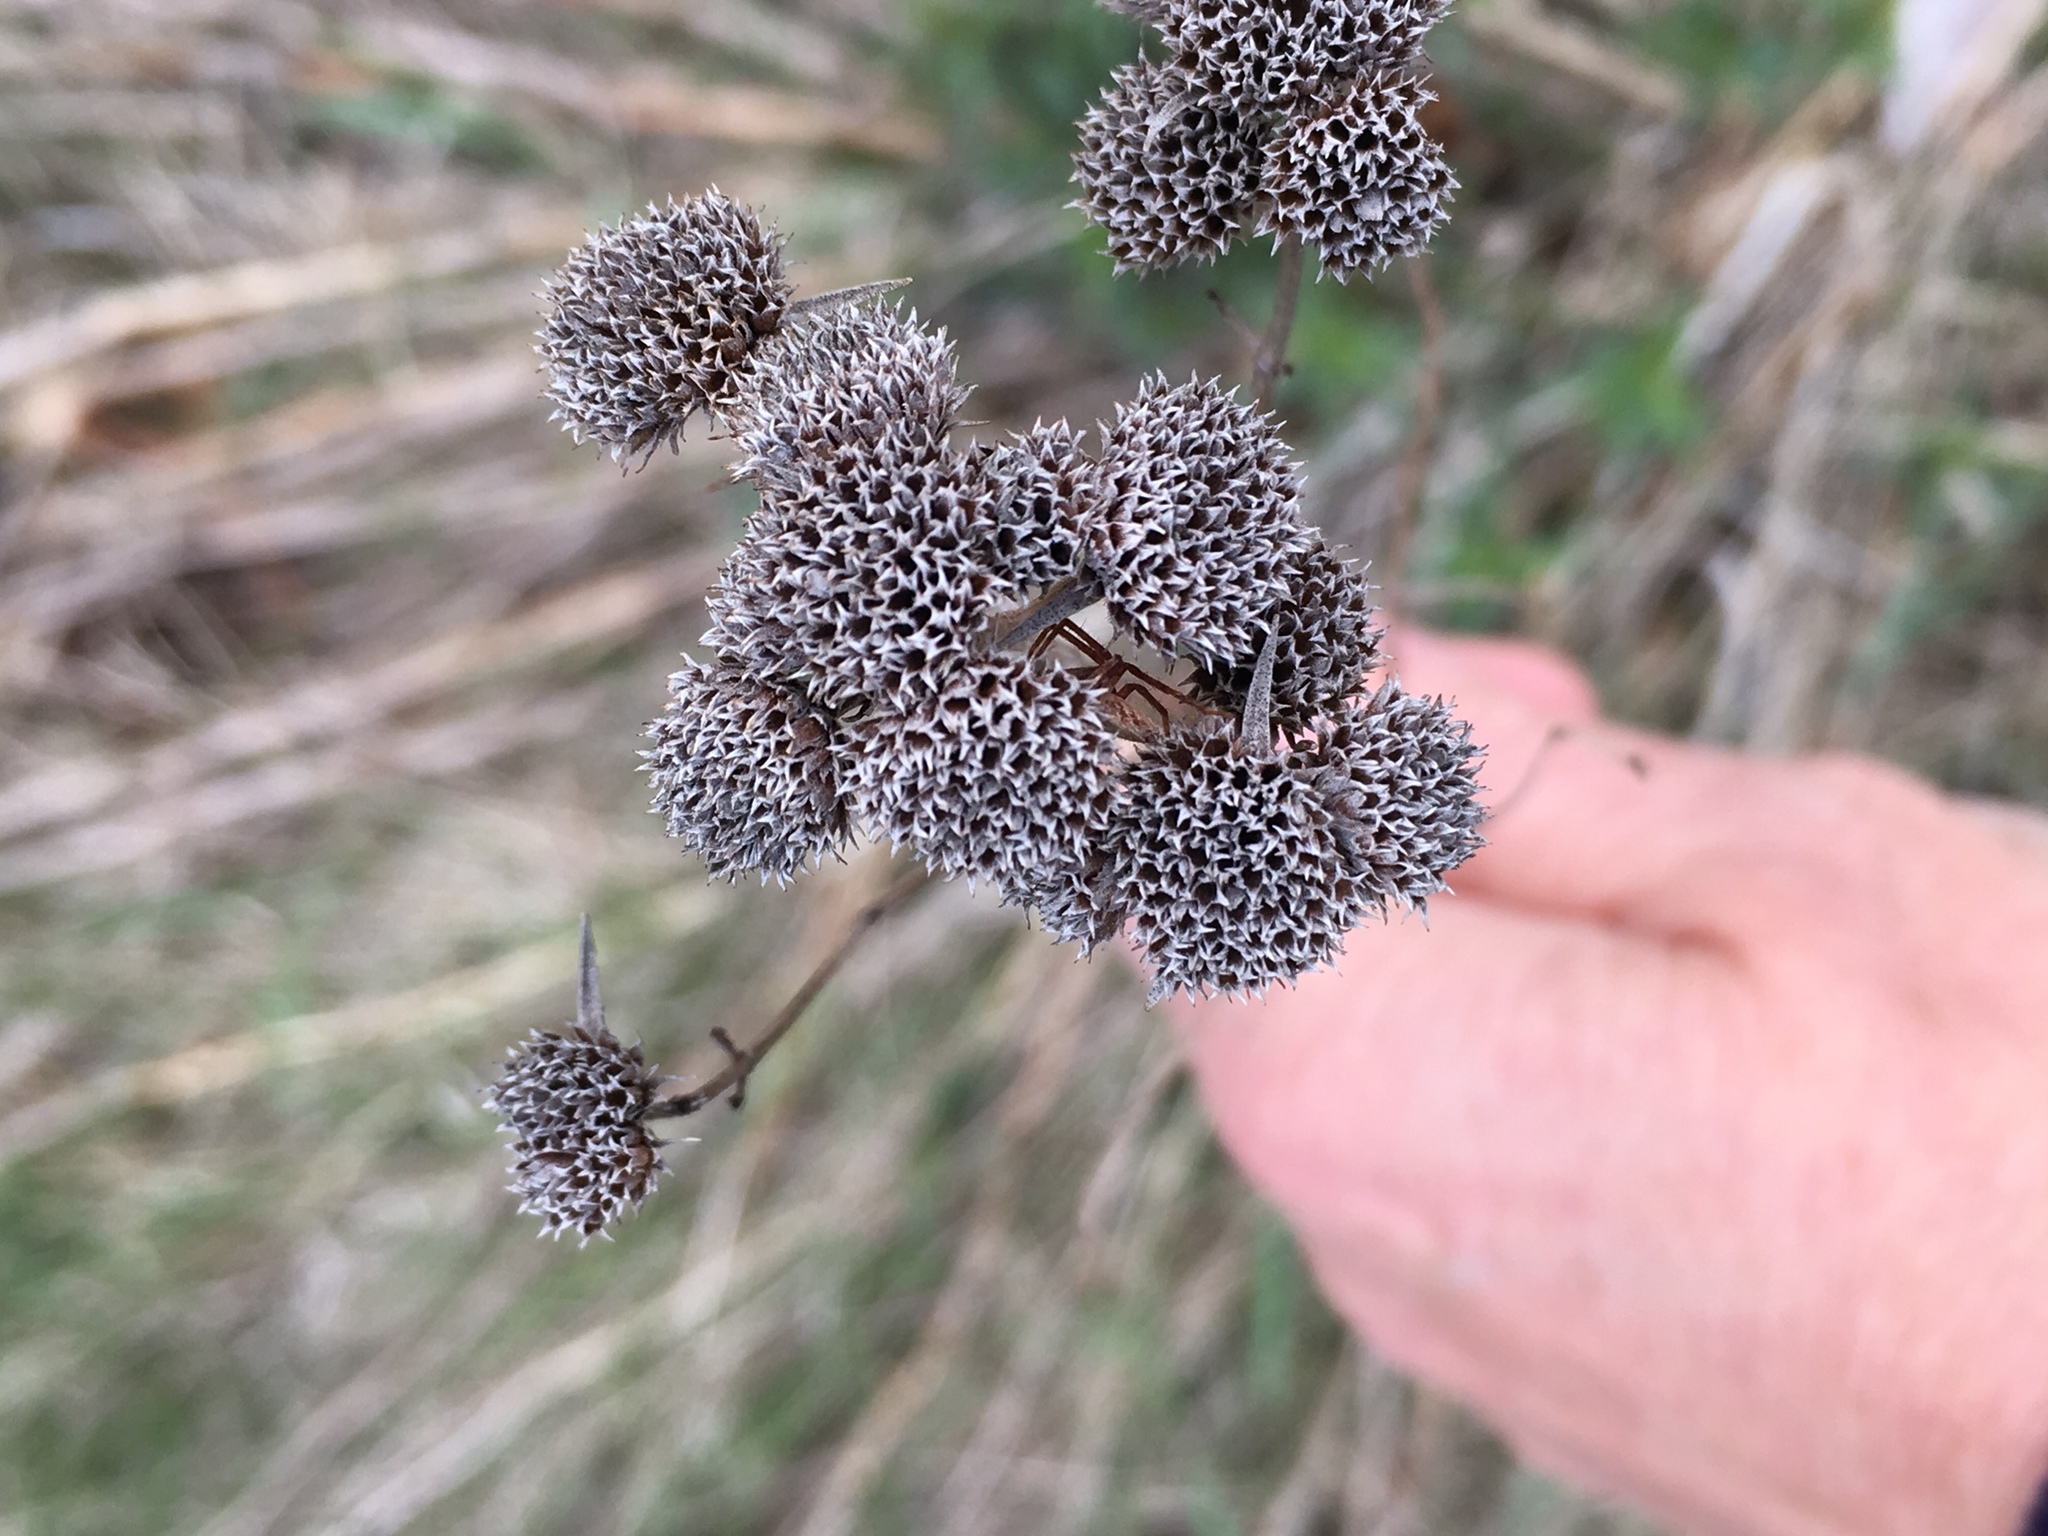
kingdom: Plantae
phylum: Tracheophyta
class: Magnoliopsida
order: Asterales
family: Asteraceae
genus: Tanacetum
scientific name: Tanacetum vulgare
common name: Common tansy
